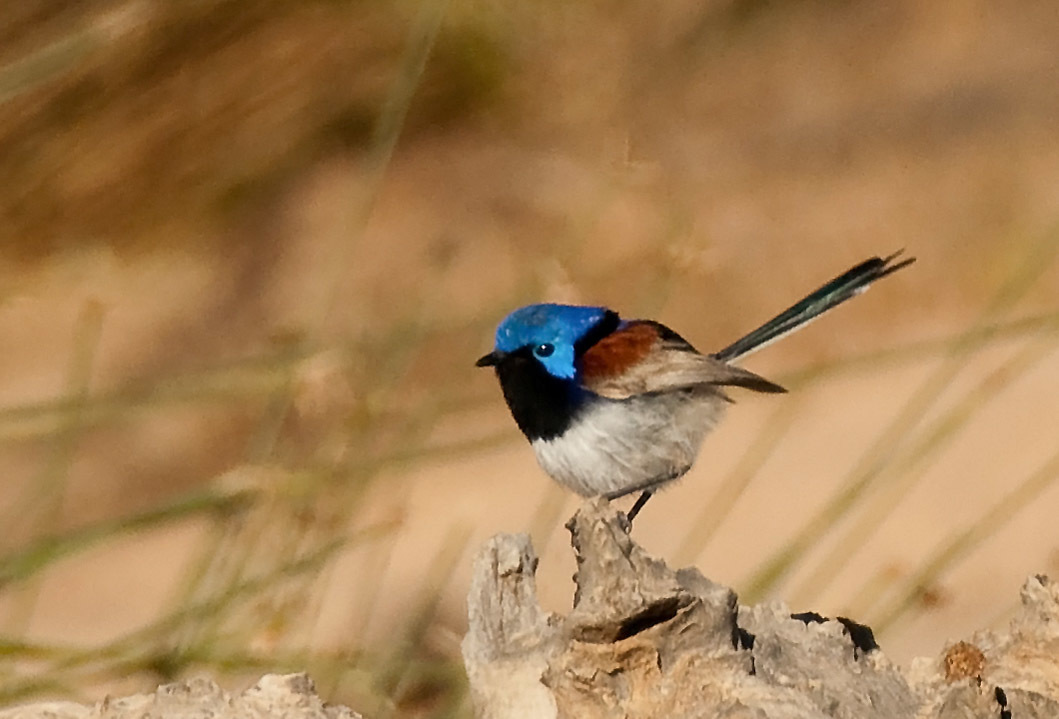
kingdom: Animalia
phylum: Chordata
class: Aves
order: Passeriformes
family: Maluridae
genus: Malurus
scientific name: Malurus assimilis
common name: Purple-backed fairywren
